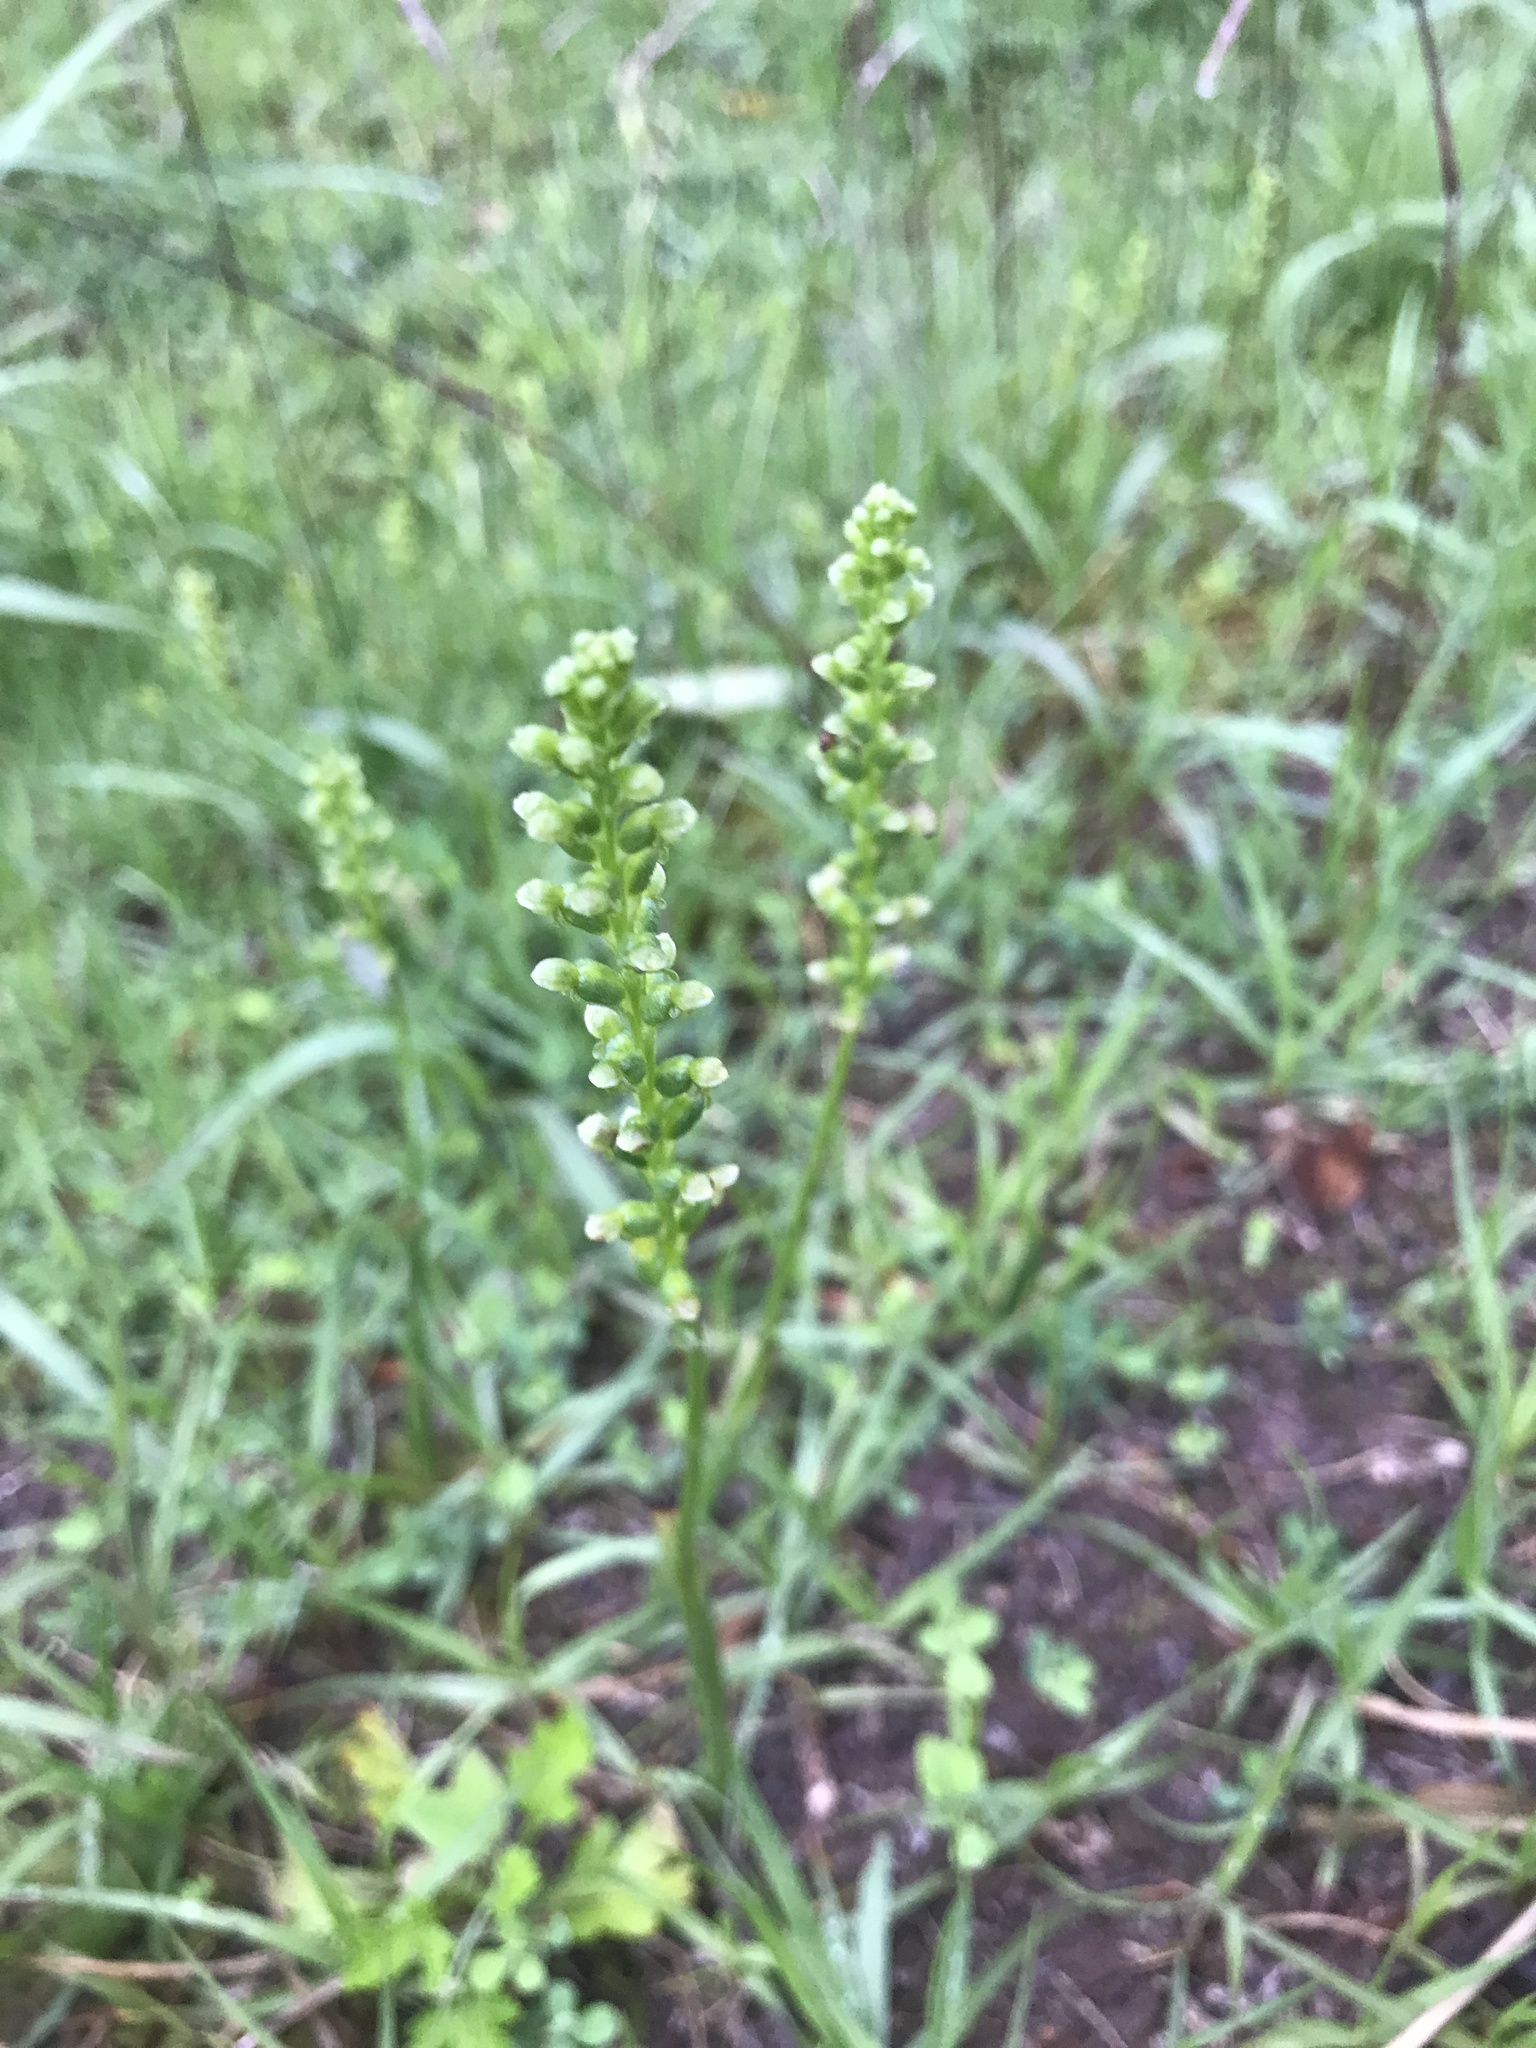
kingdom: Plantae
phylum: Tracheophyta
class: Liliopsida
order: Asparagales
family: Orchidaceae
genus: Microtis
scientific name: Microtis unifolia
